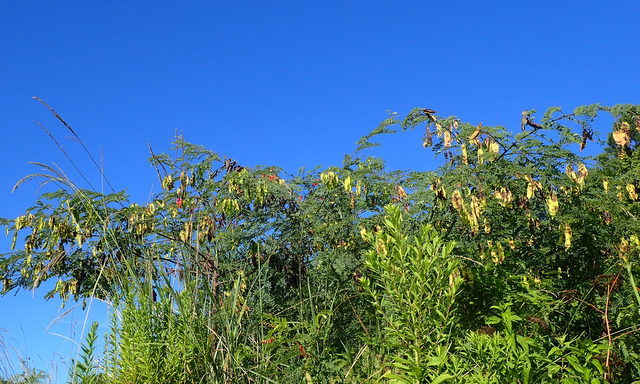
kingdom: Plantae
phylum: Tracheophyta
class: Magnoliopsida
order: Fabales
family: Fabaceae
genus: Sesbania
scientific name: Sesbania punicea
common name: Rattlebox
